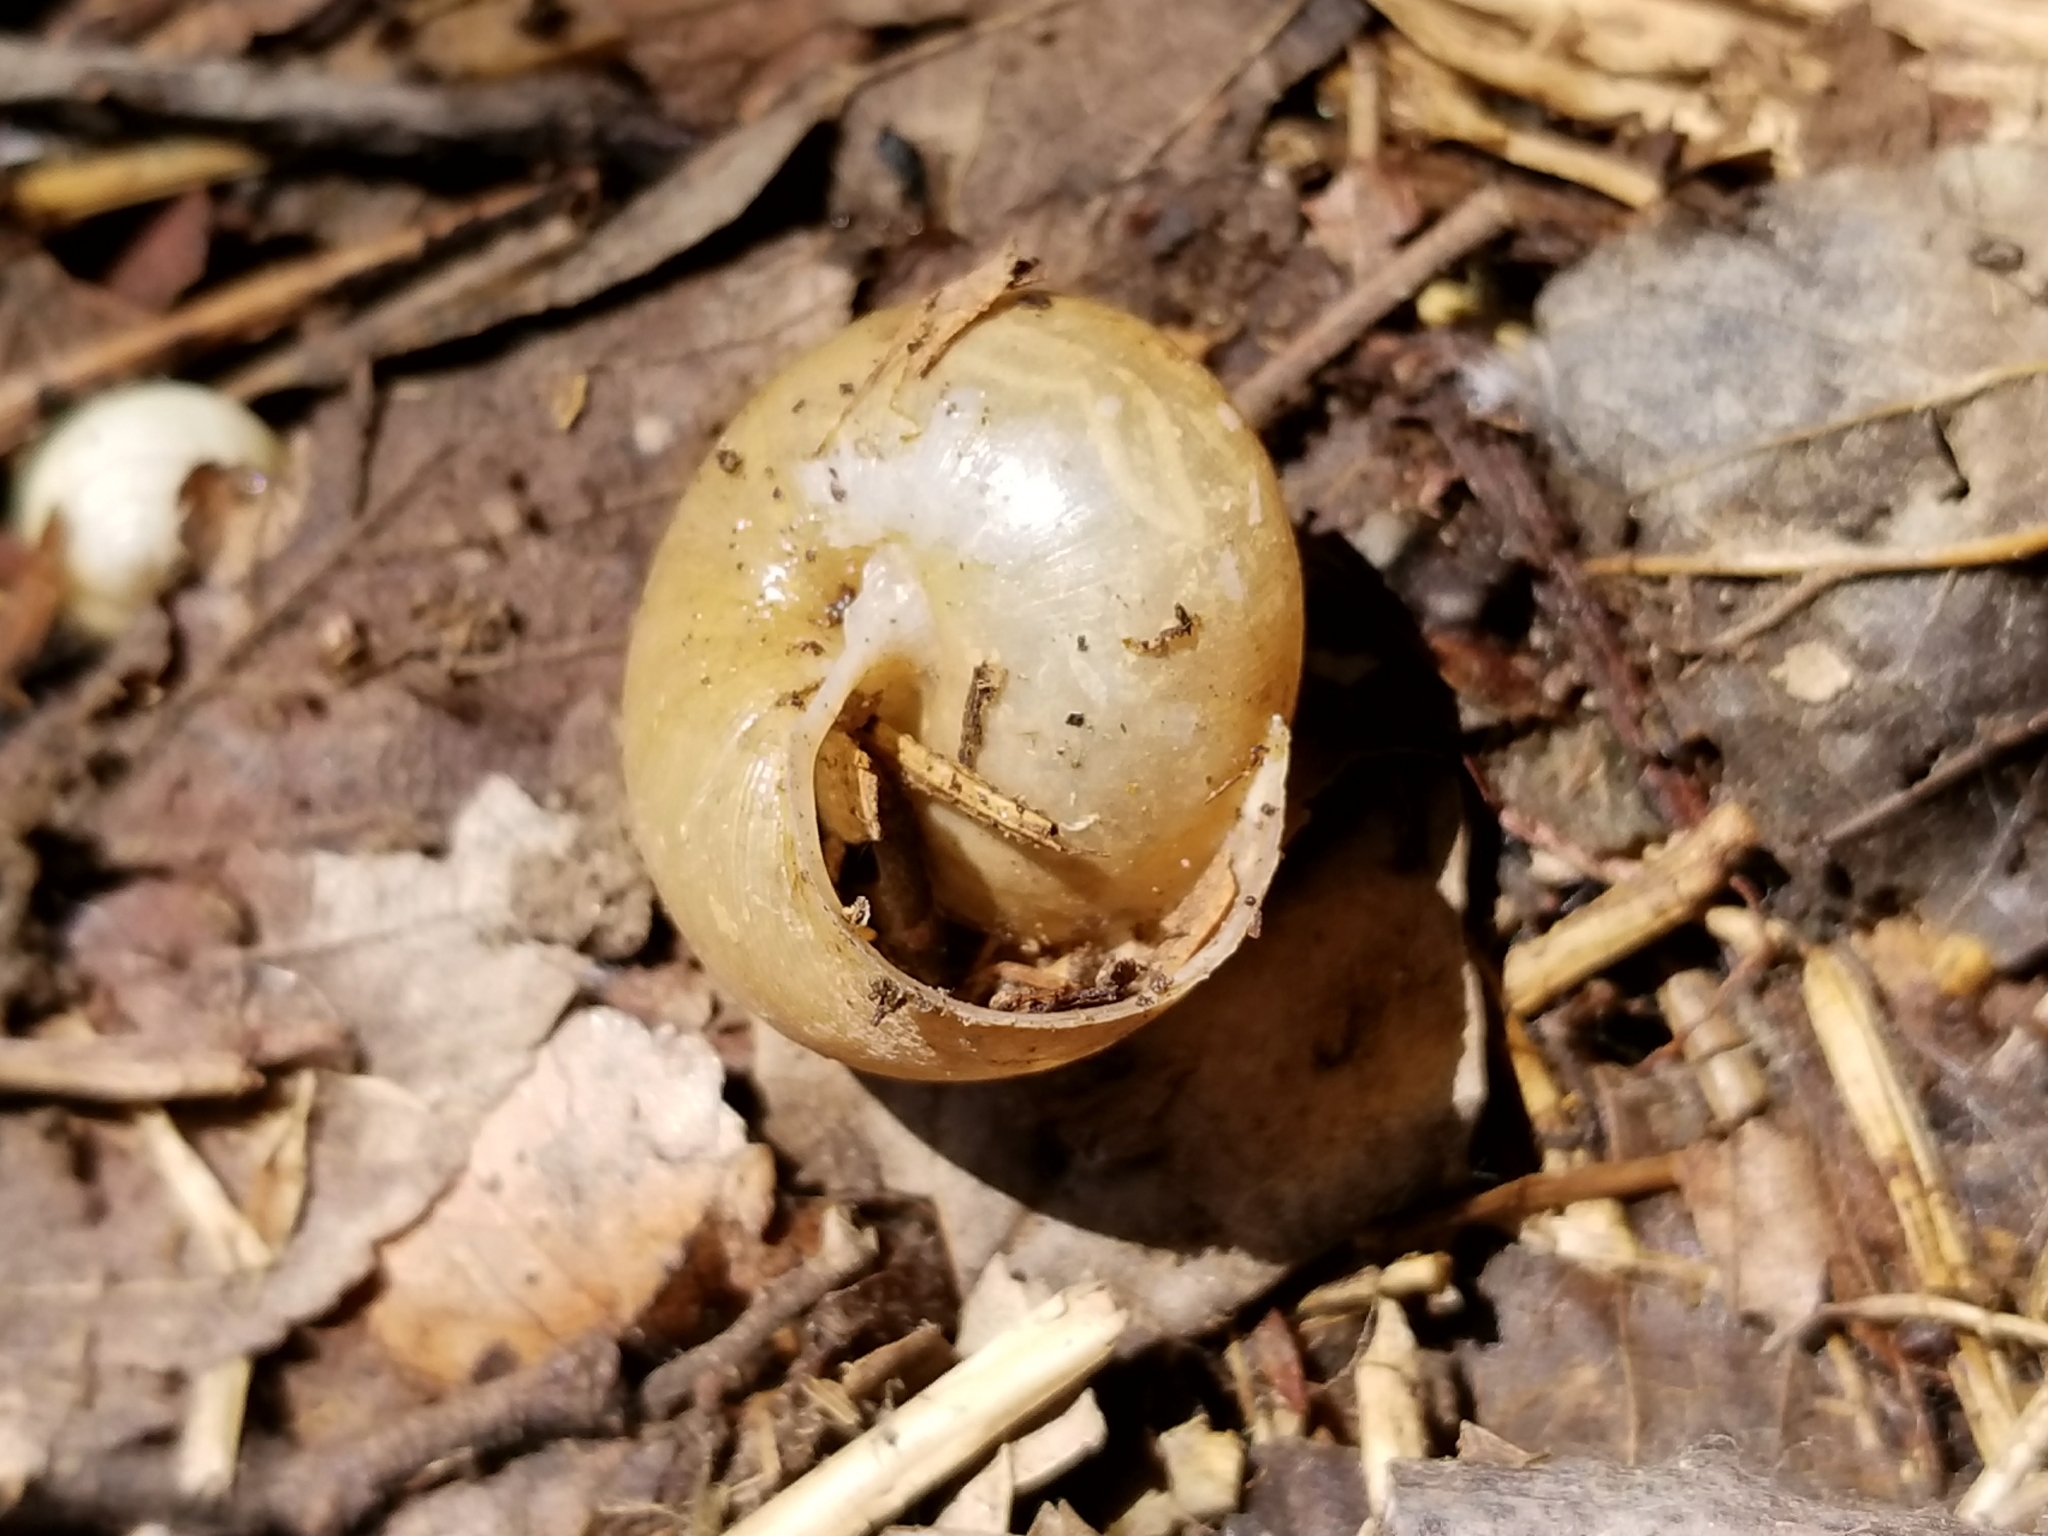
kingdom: Animalia
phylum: Mollusca
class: Gastropoda
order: Stylommatophora
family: Polygyridae
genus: Mesodon
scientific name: Mesodon thyroidus
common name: White-lip globe
